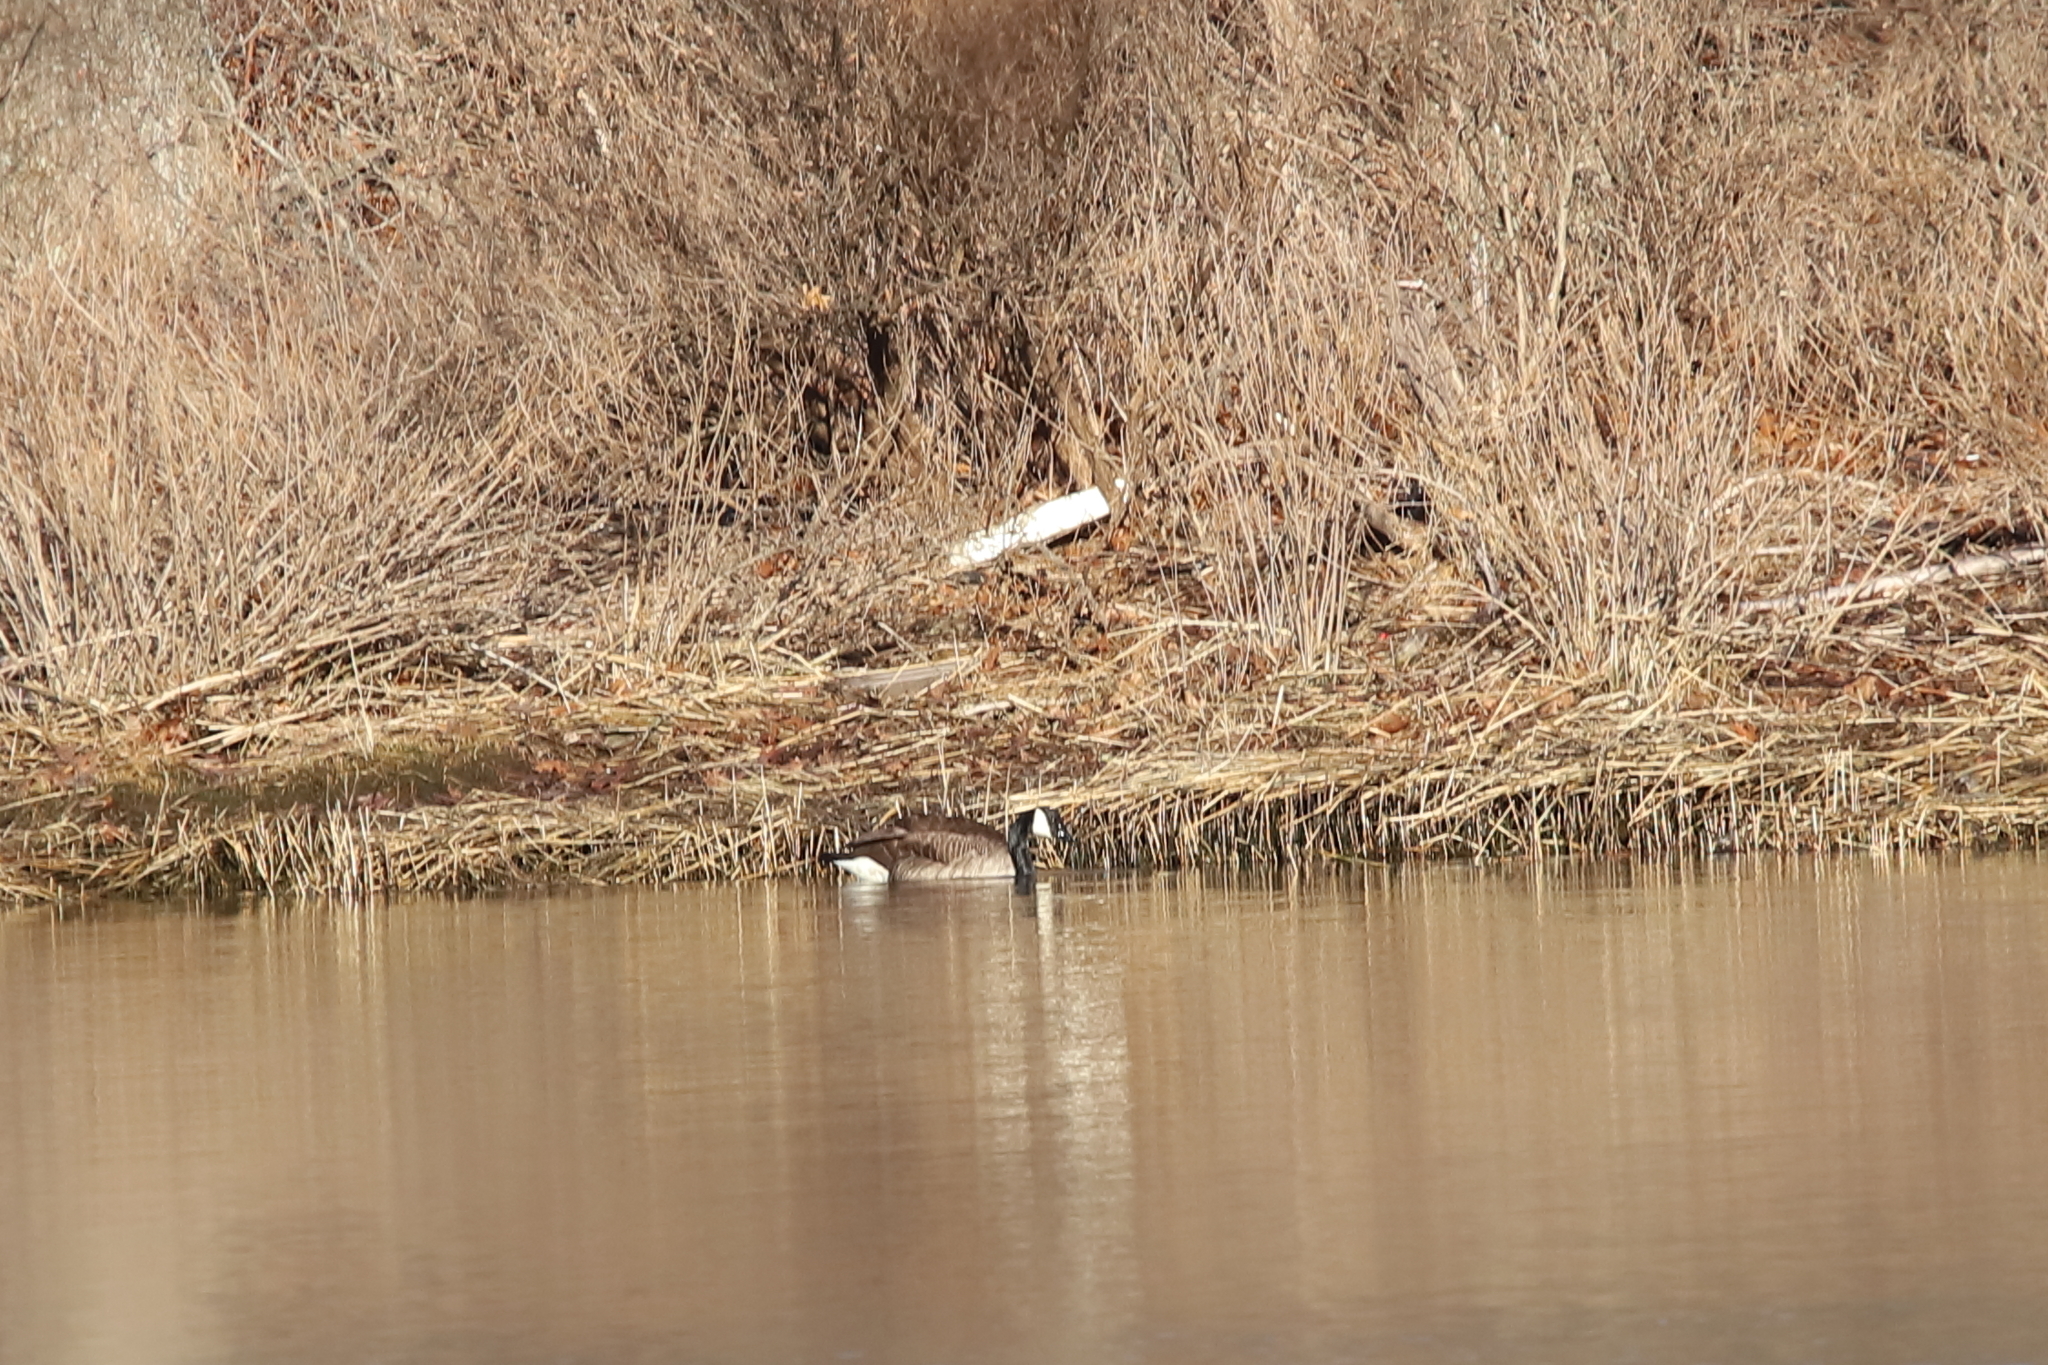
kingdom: Animalia
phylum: Chordata
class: Aves
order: Anseriformes
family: Anatidae
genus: Branta
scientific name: Branta canadensis
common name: Canada goose
